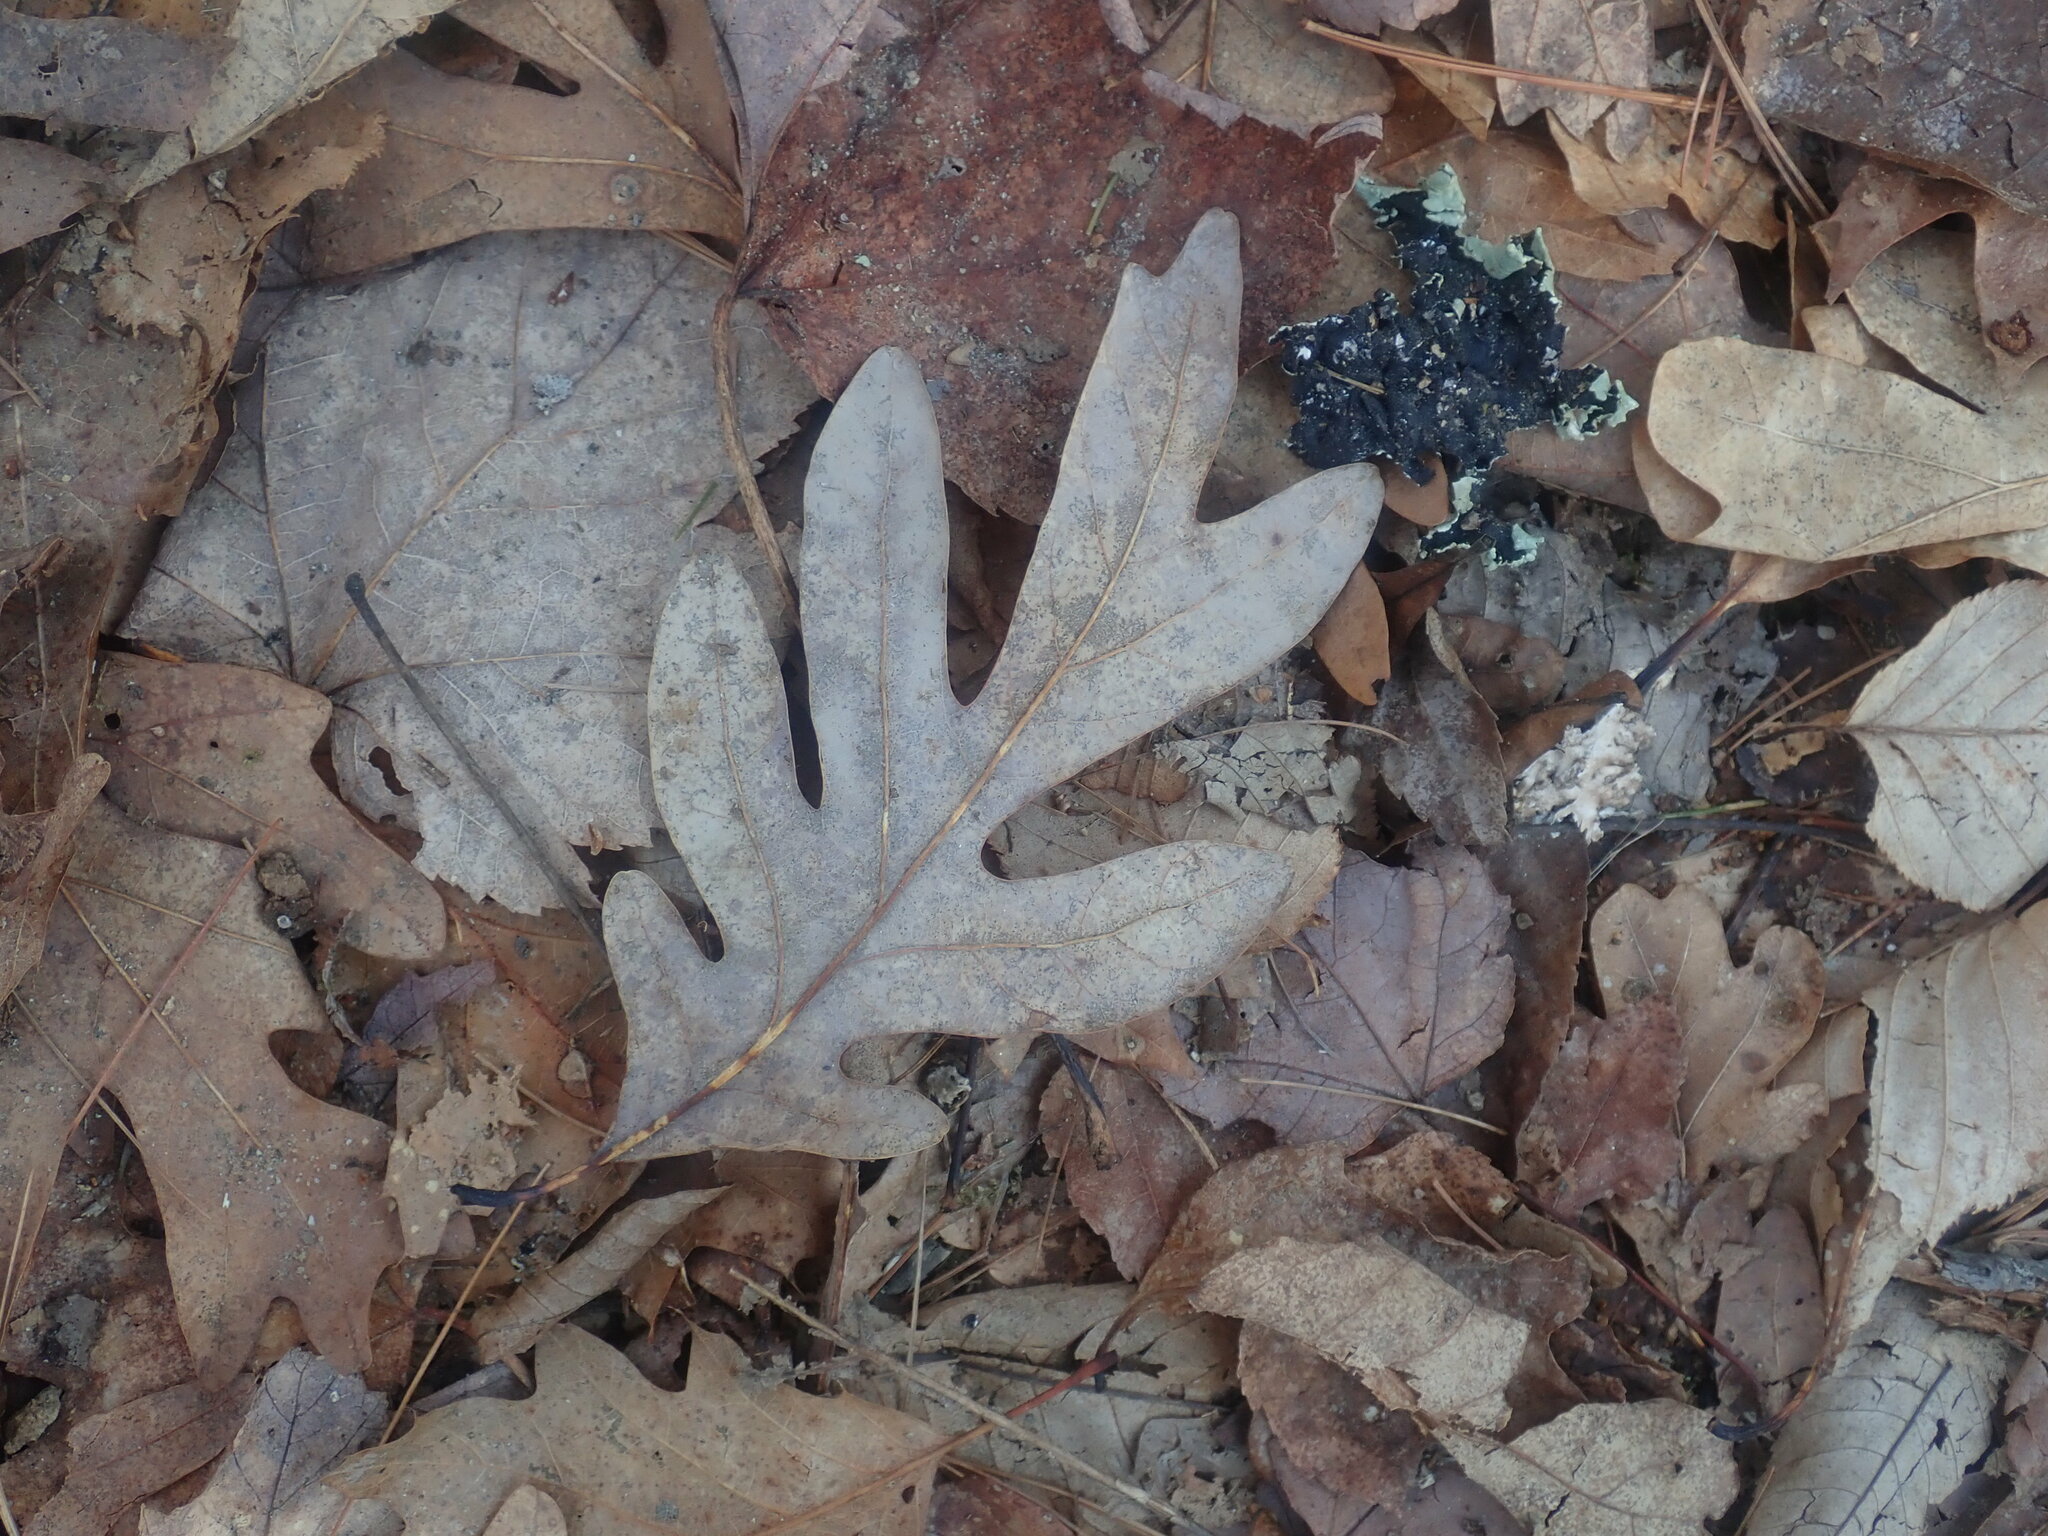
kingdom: Plantae
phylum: Tracheophyta
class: Magnoliopsida
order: Fagales
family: Fagaceae
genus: Quercus
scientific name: Quercus alba
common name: White oak
